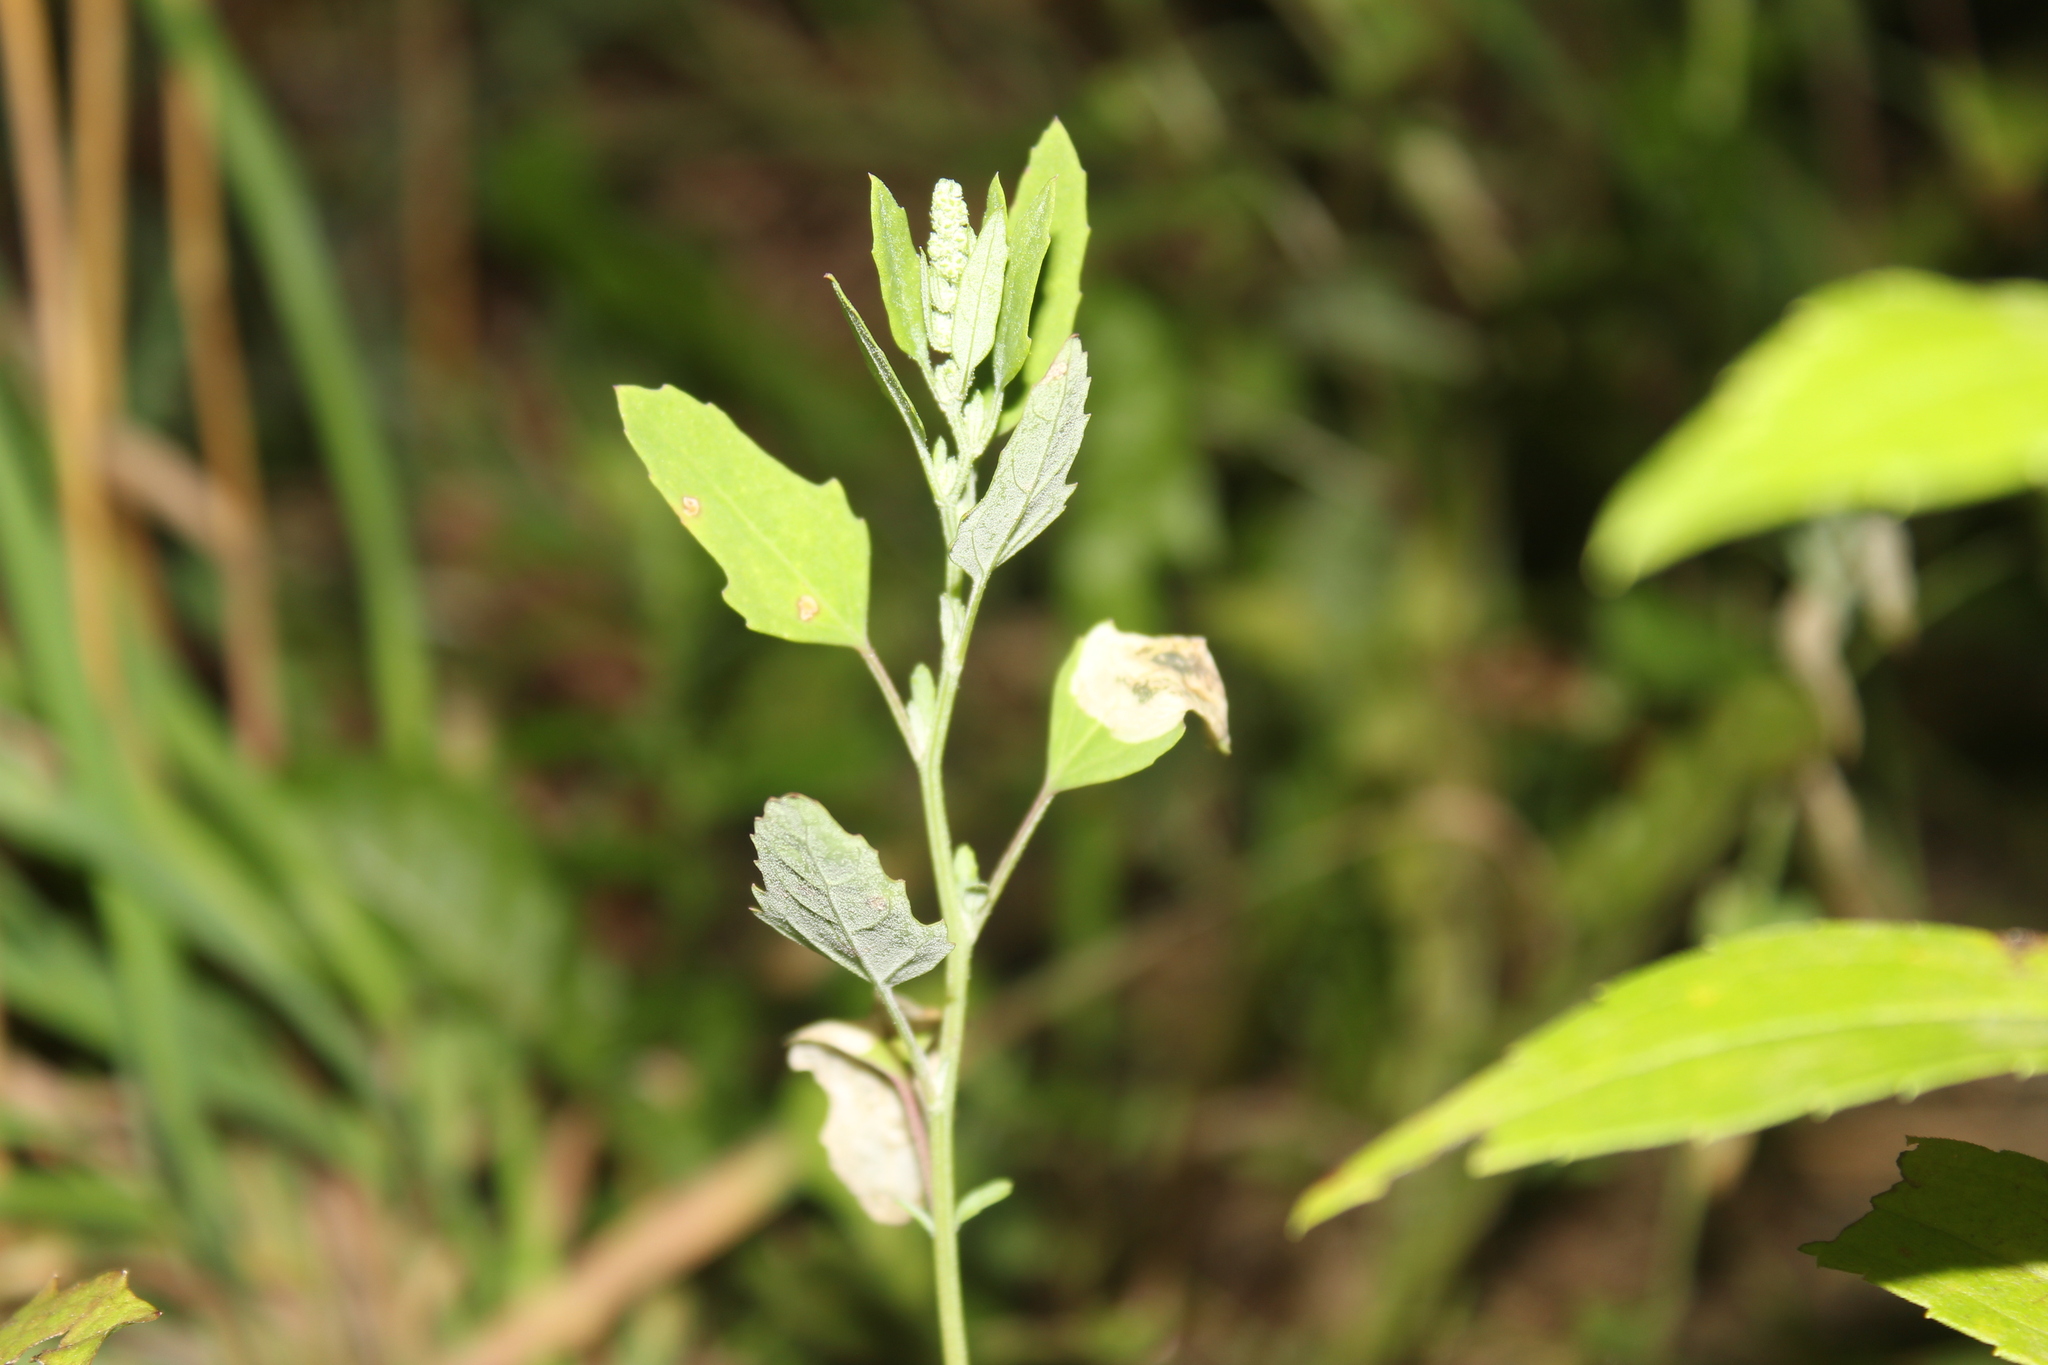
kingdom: Plantae
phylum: Tracheophyta
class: Magnoliopsida
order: Caryophyllales
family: Amaranthaceae
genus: Chenopodium
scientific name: Chenopodium album
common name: Fat-hen
